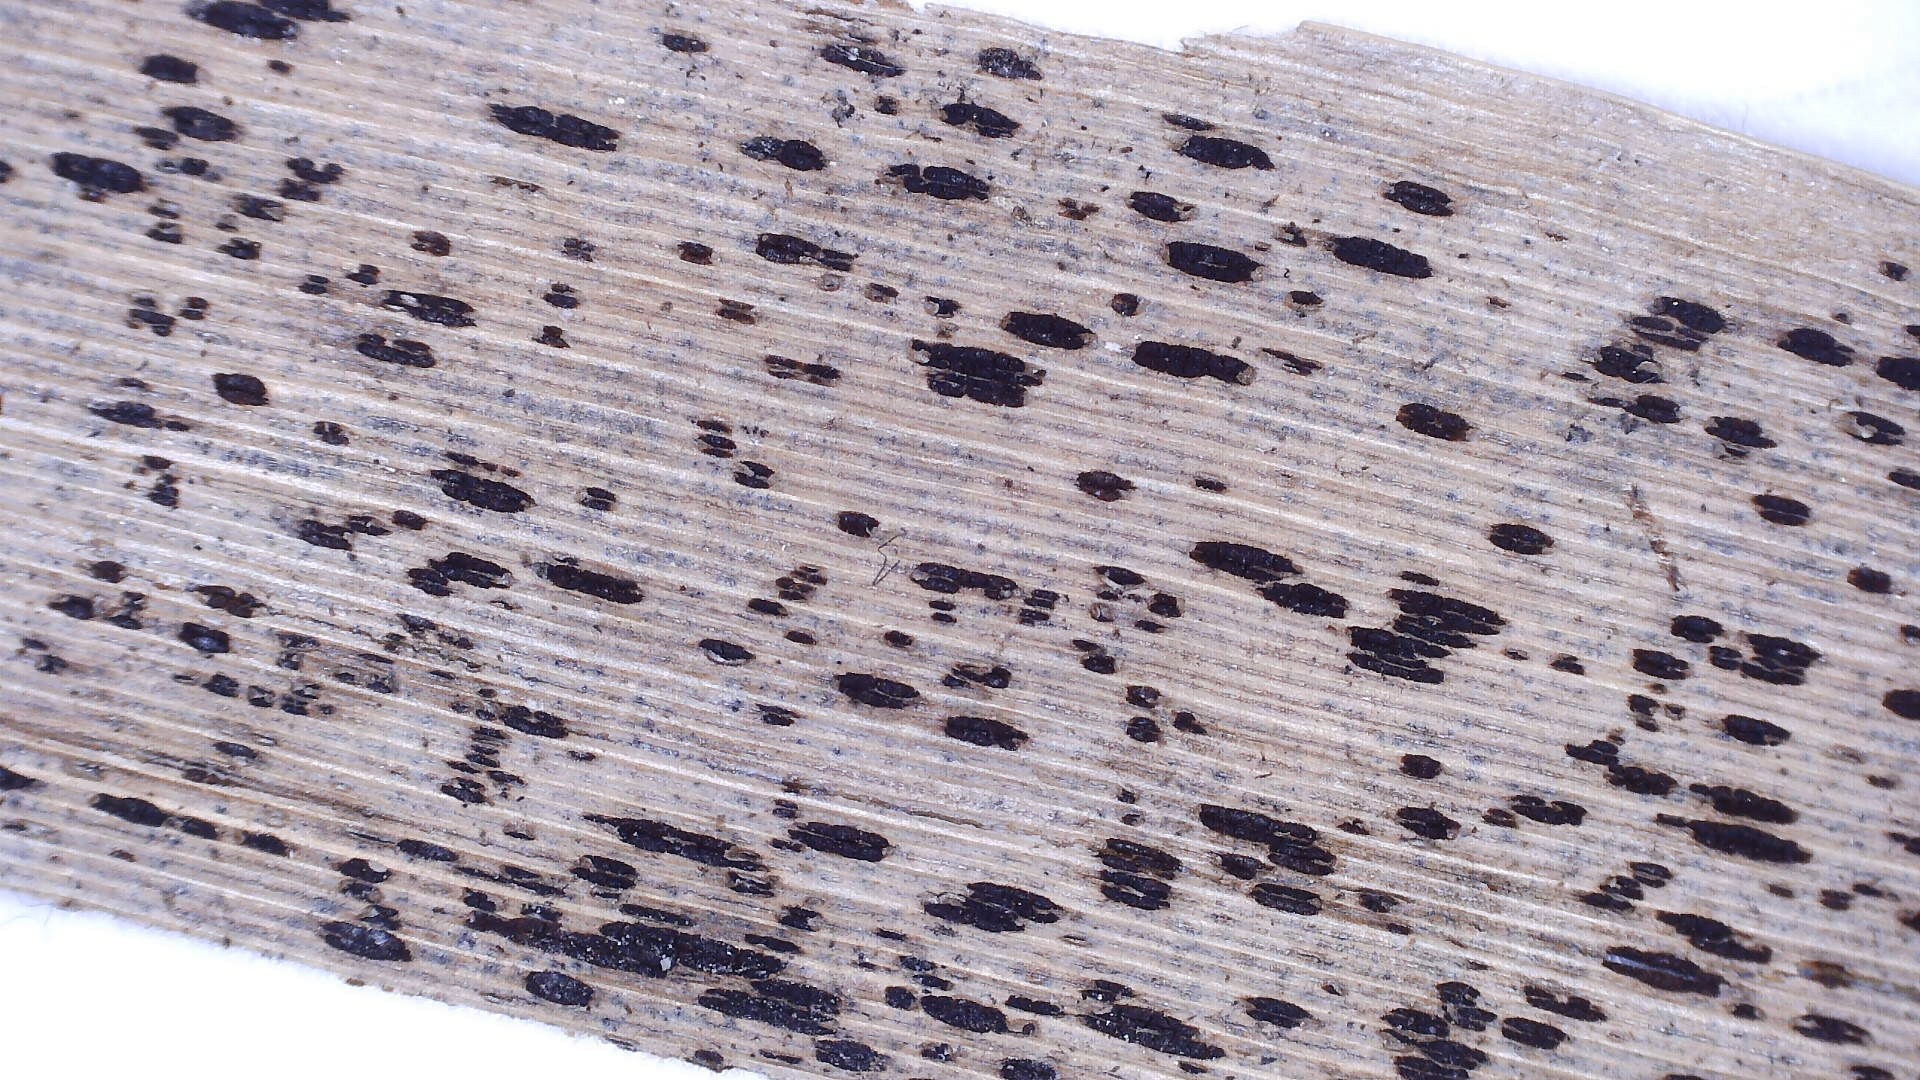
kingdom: Fungi
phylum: Basidiomycota
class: Pucciniomycetes
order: Pucciniales
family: Pucciniaceae
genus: Puccinia
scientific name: Puccinia phragmitis
